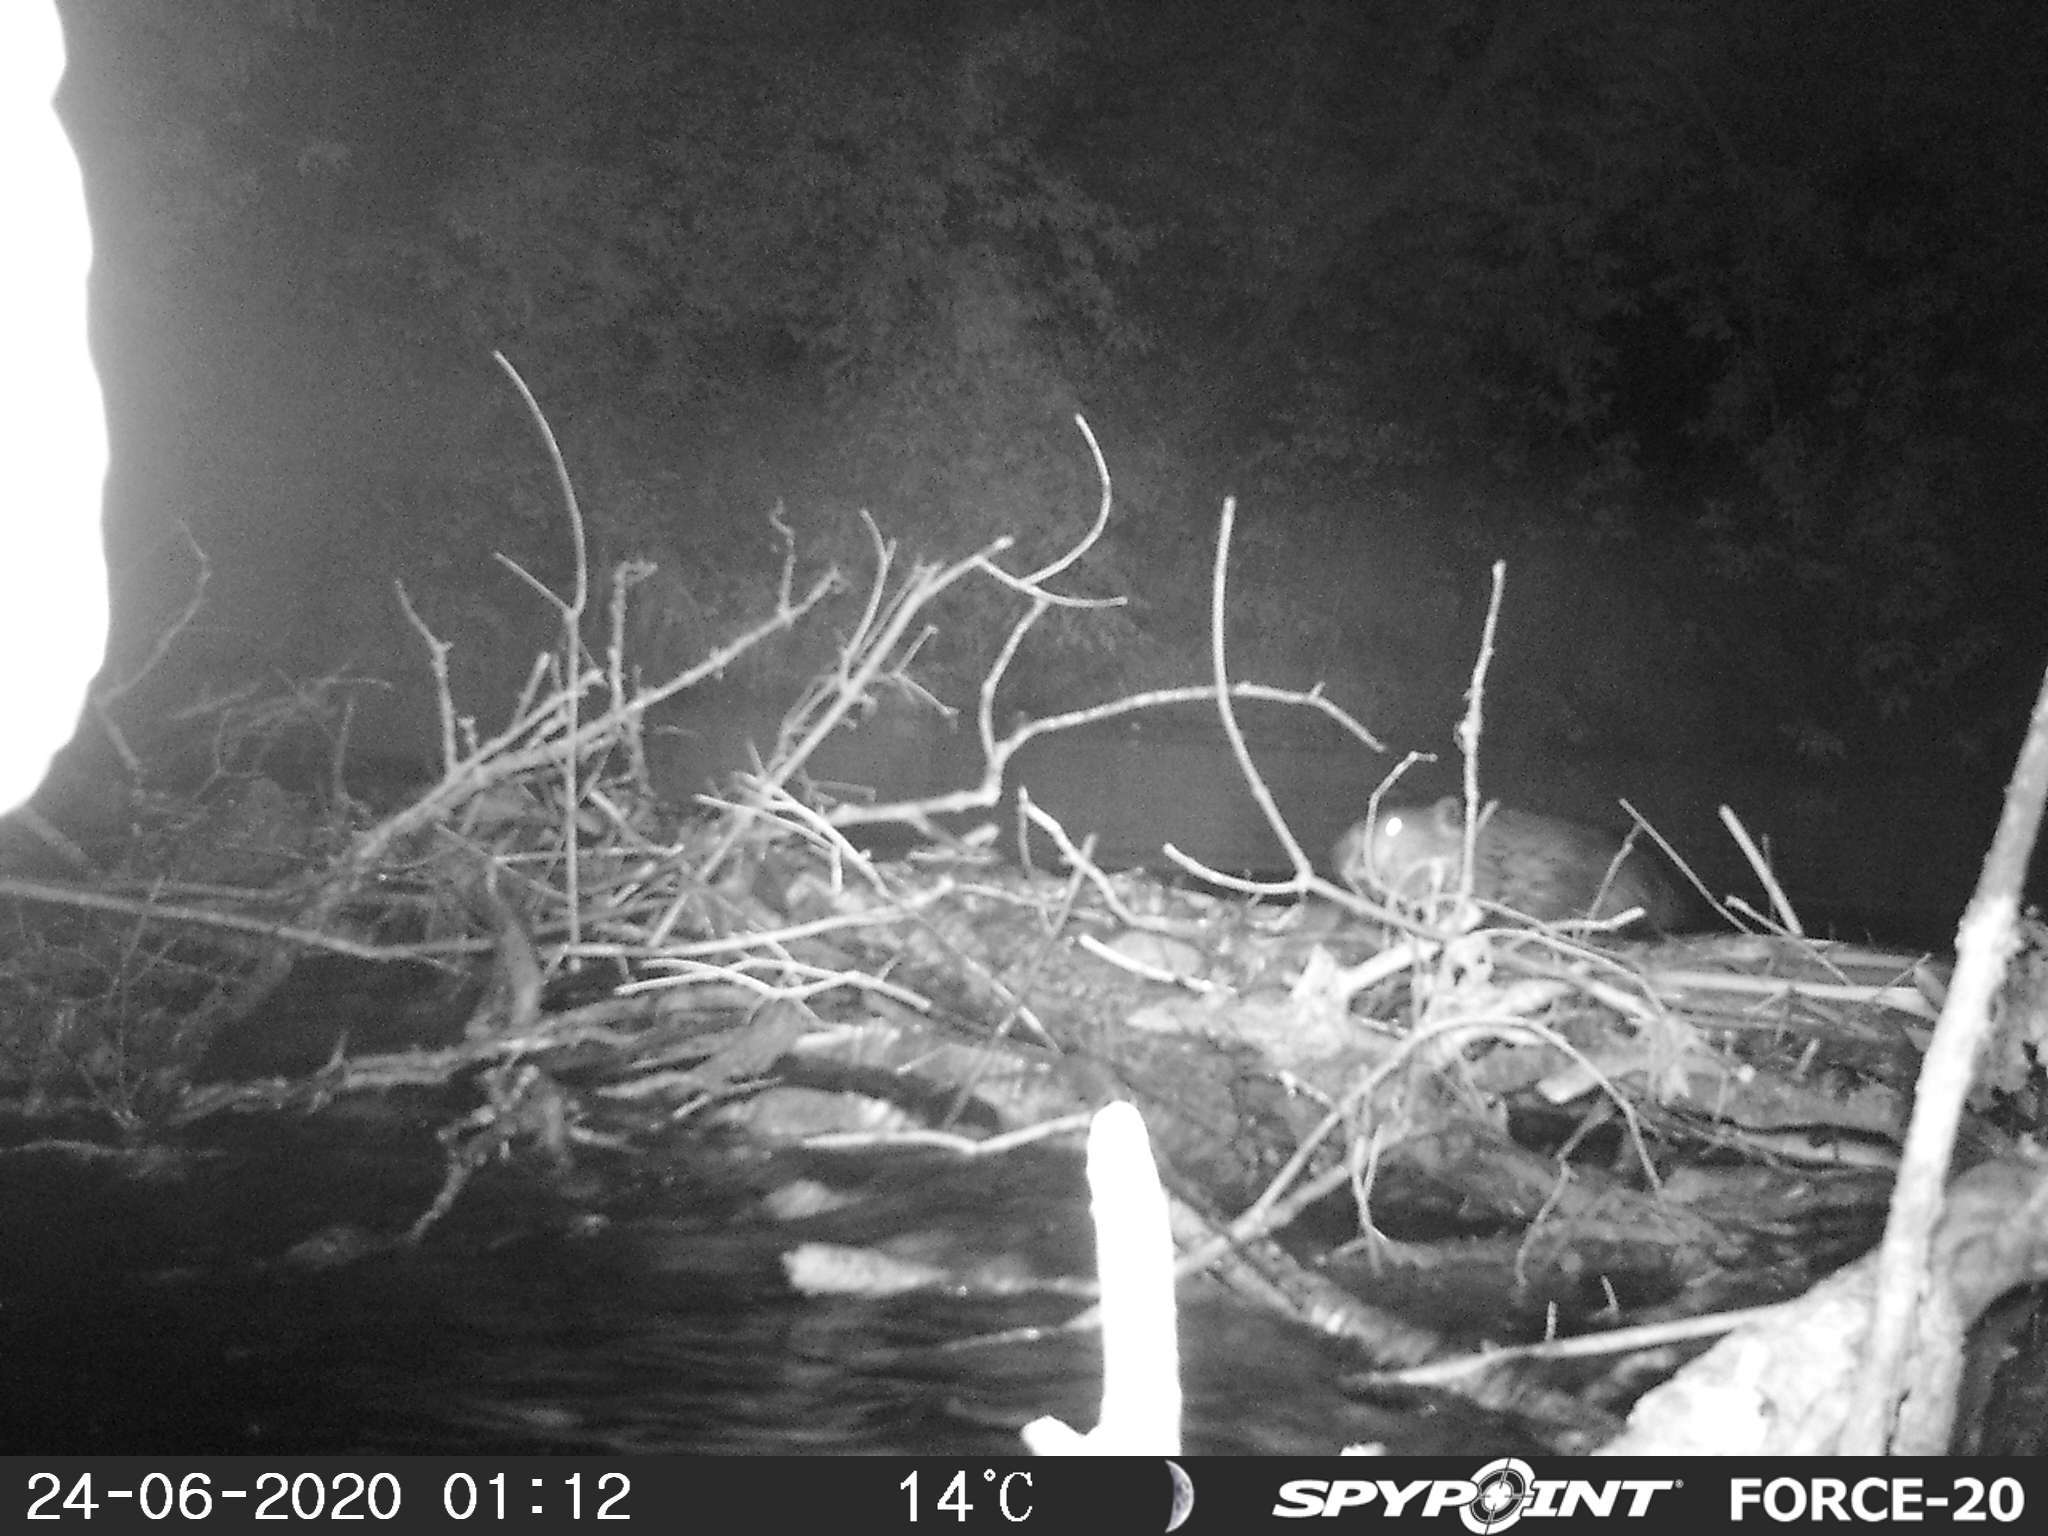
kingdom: Animalia
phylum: Chordata
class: Mammalia
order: Rodentia
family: Castoridae
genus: Castor
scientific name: Castor canadensis
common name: American beaver
